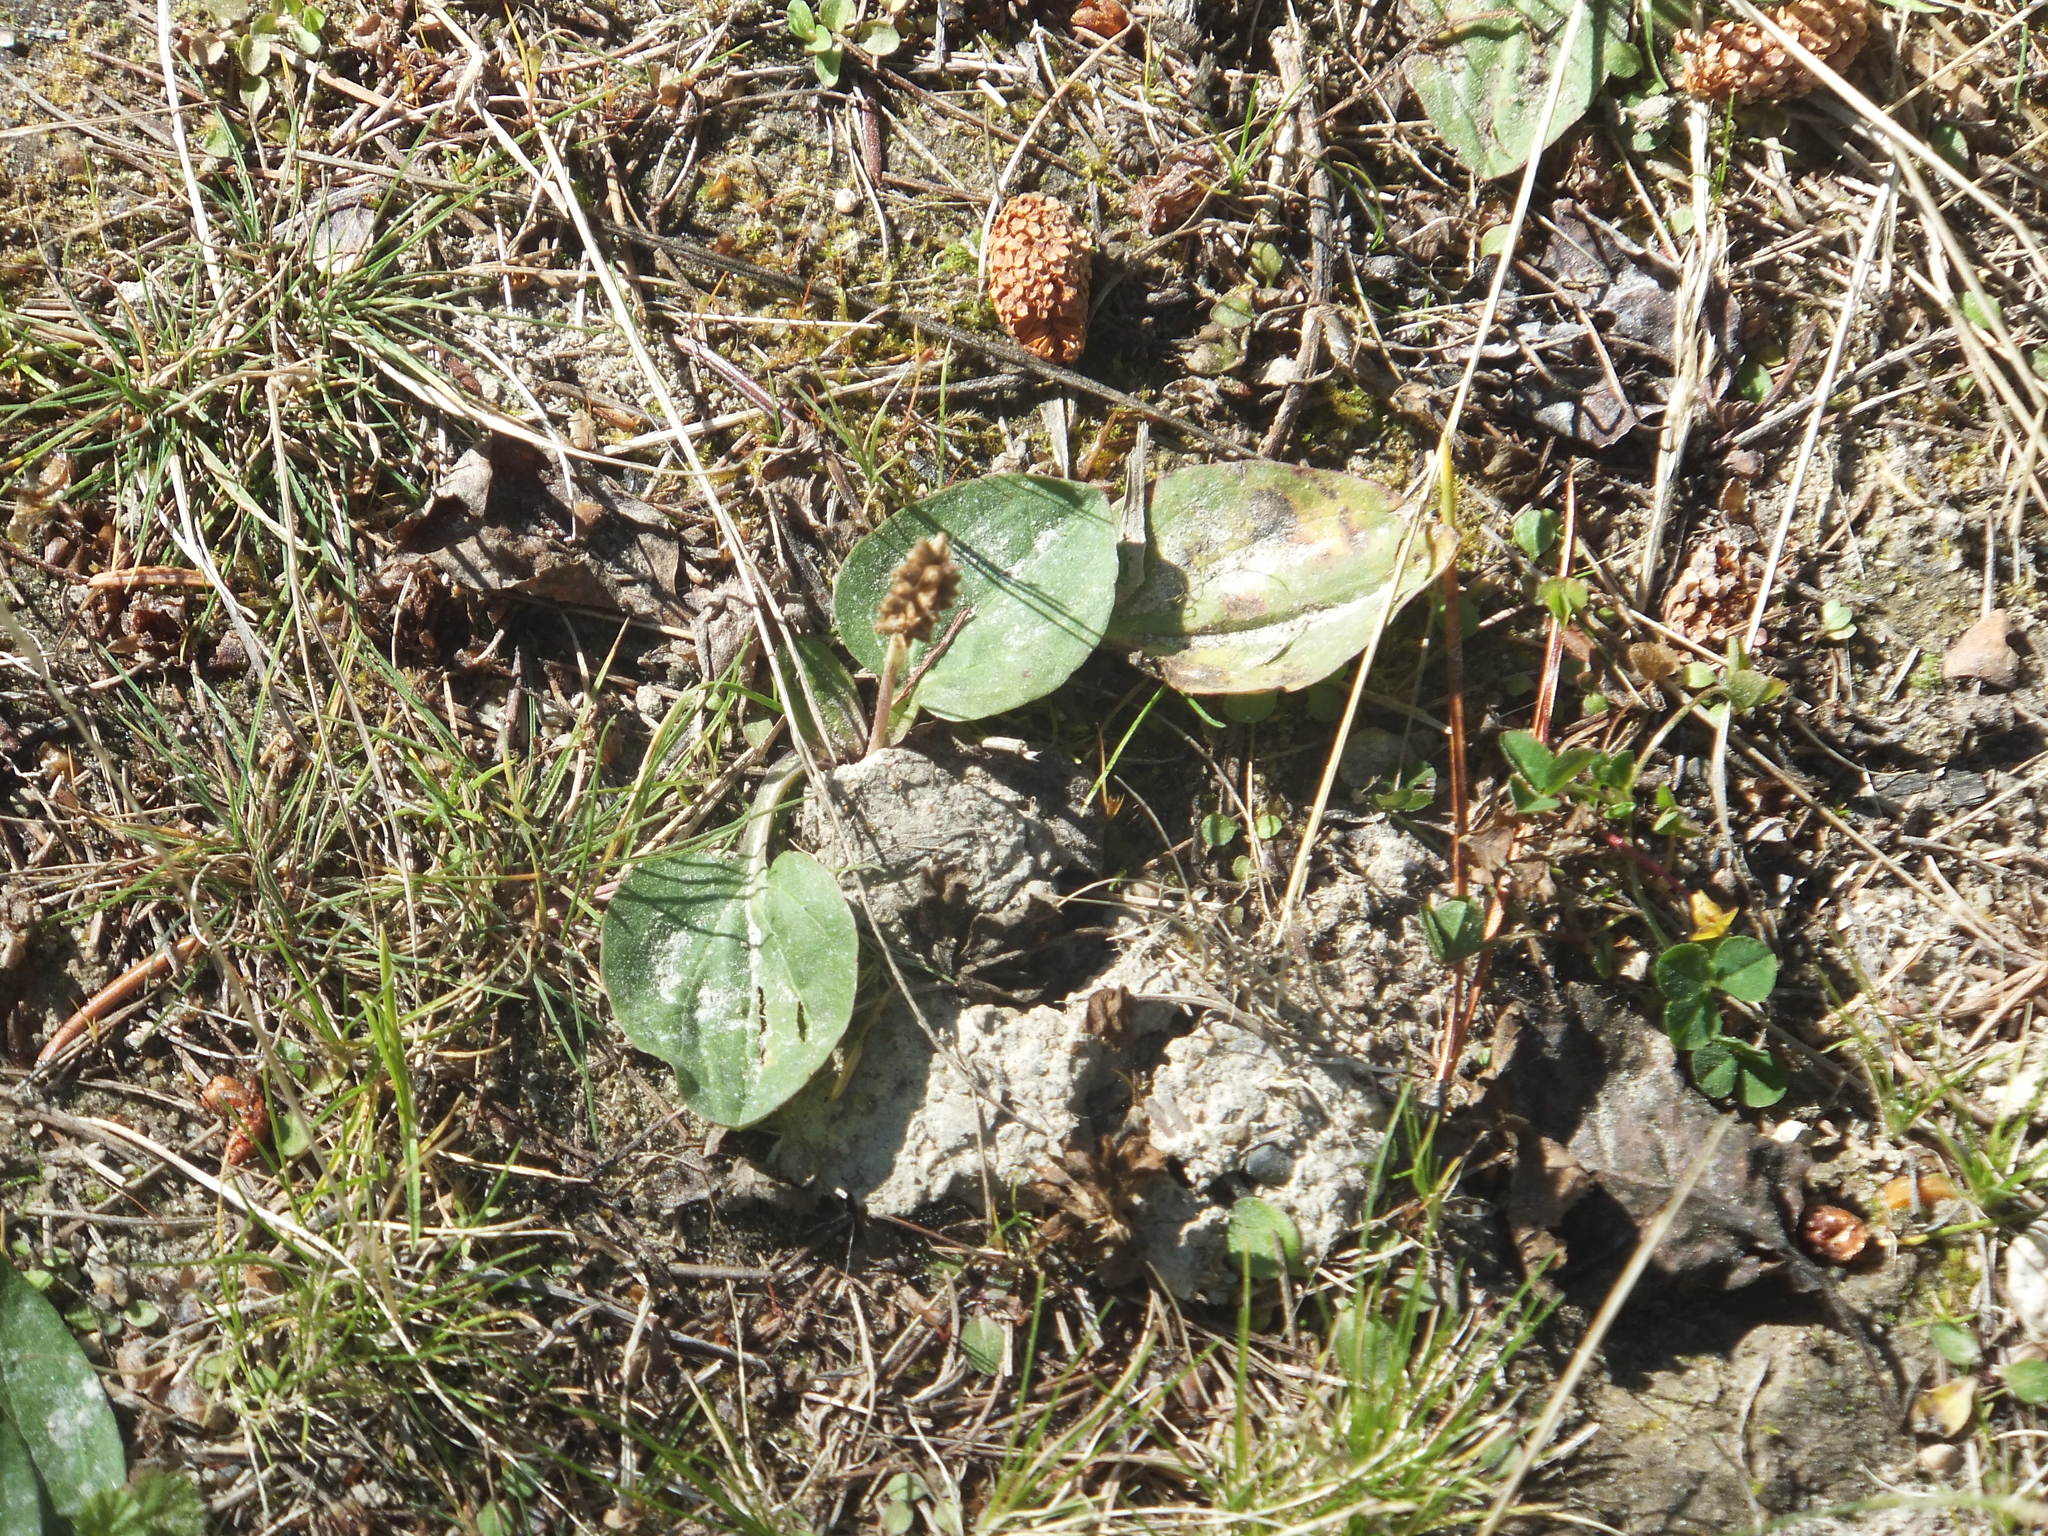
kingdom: Plantae
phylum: Tracheophyta
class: Magnoliopsida
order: Lamiales
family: Plantaginaceae
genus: Plantago
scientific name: Plantago major
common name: Common plantain
